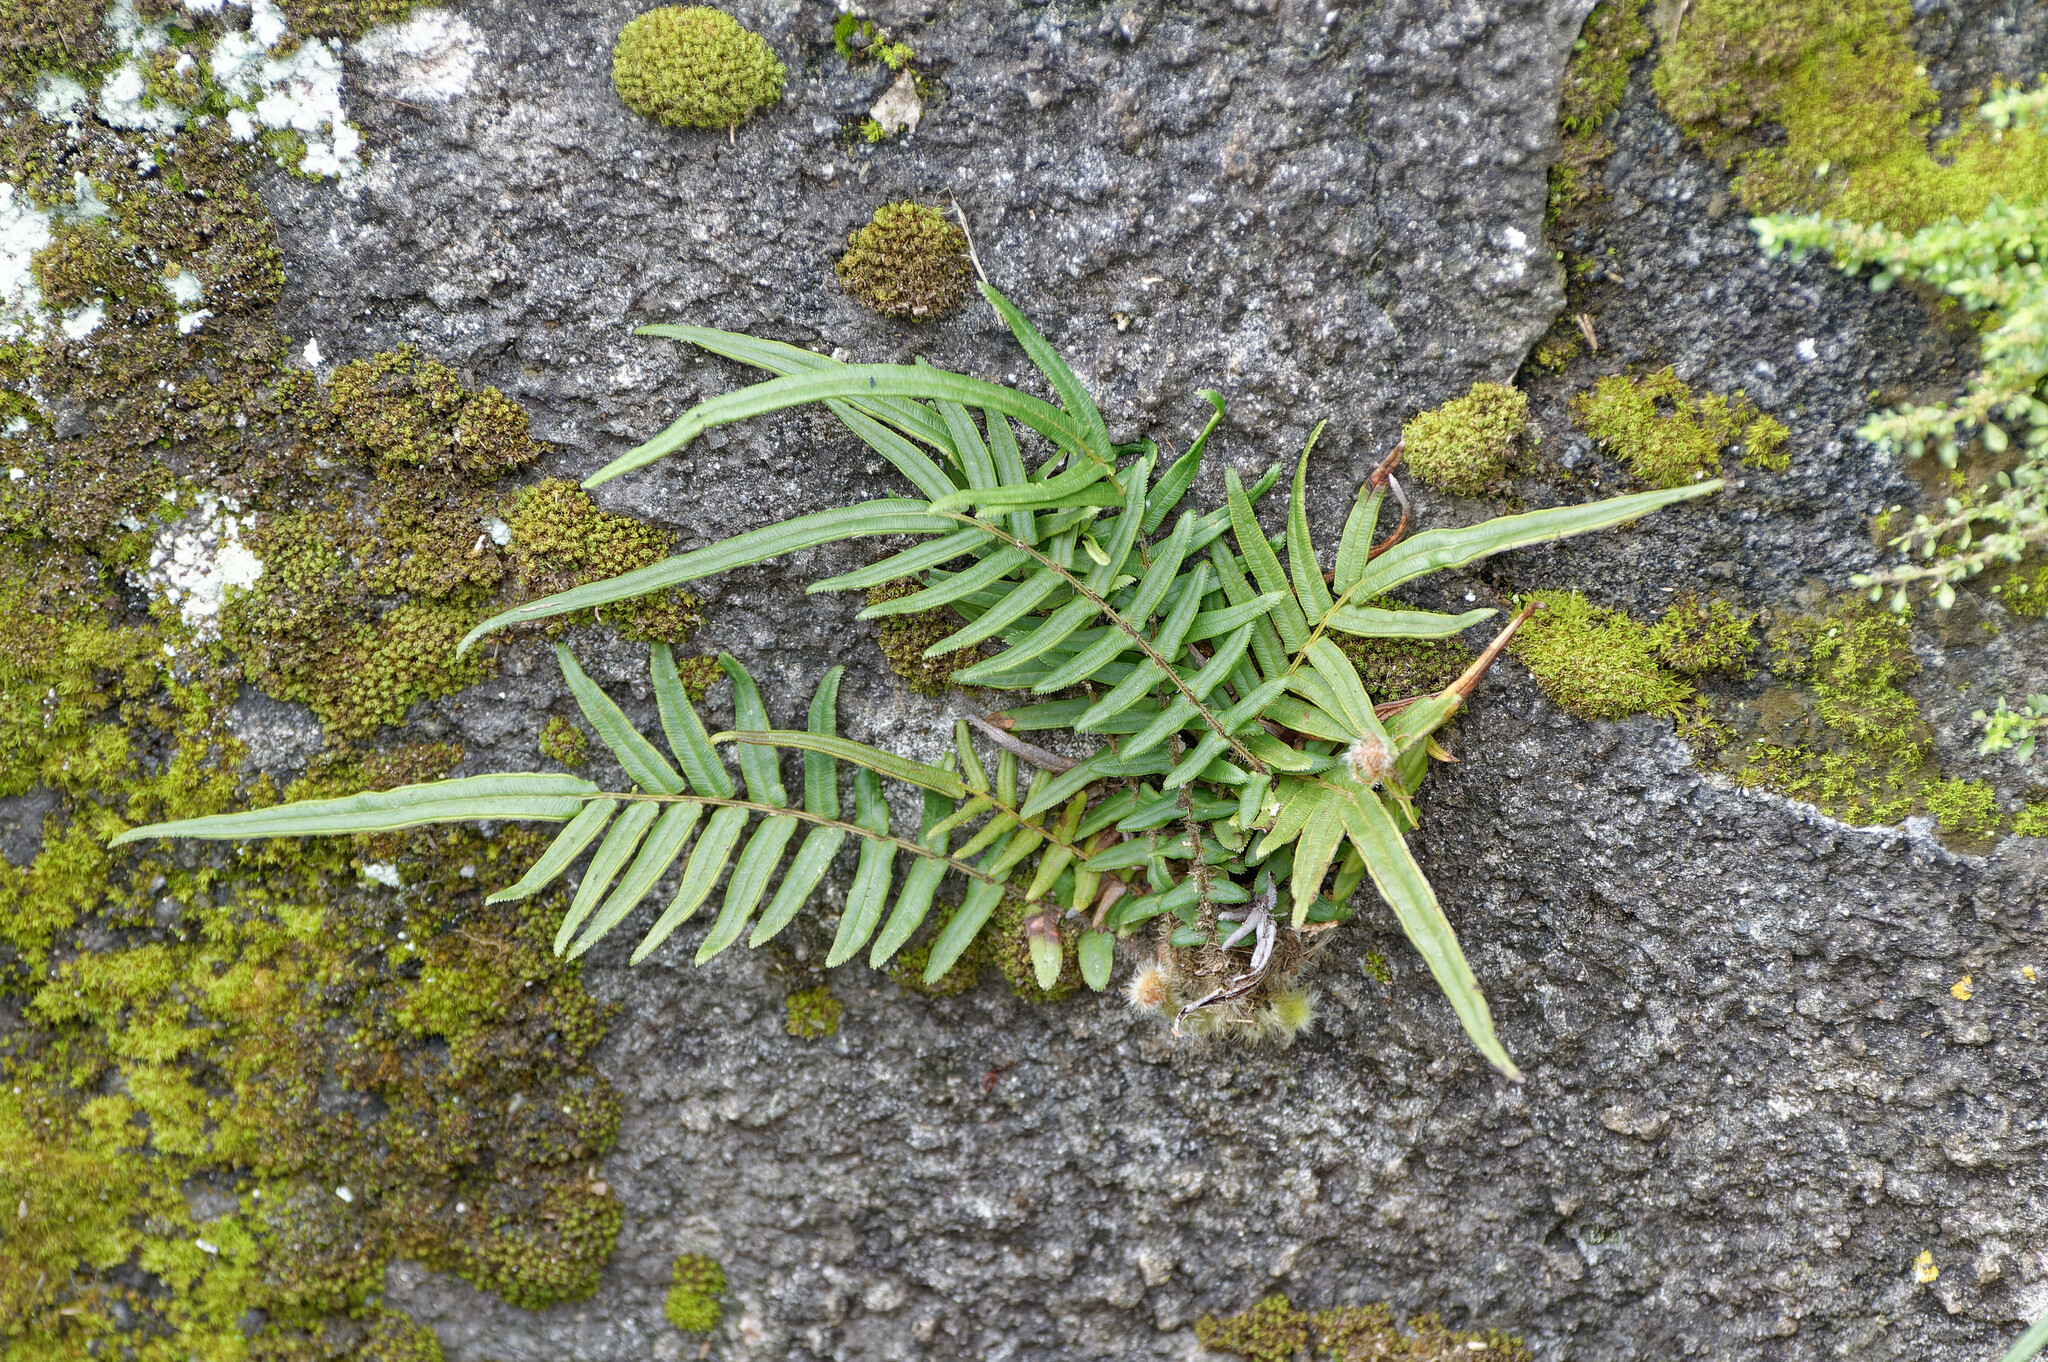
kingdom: Plantae
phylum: Tracheophyta
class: Polypodiopsida
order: Polypodiales
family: Pteridaceae
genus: Pteris
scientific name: Pteris vittata
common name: Ladder brake
